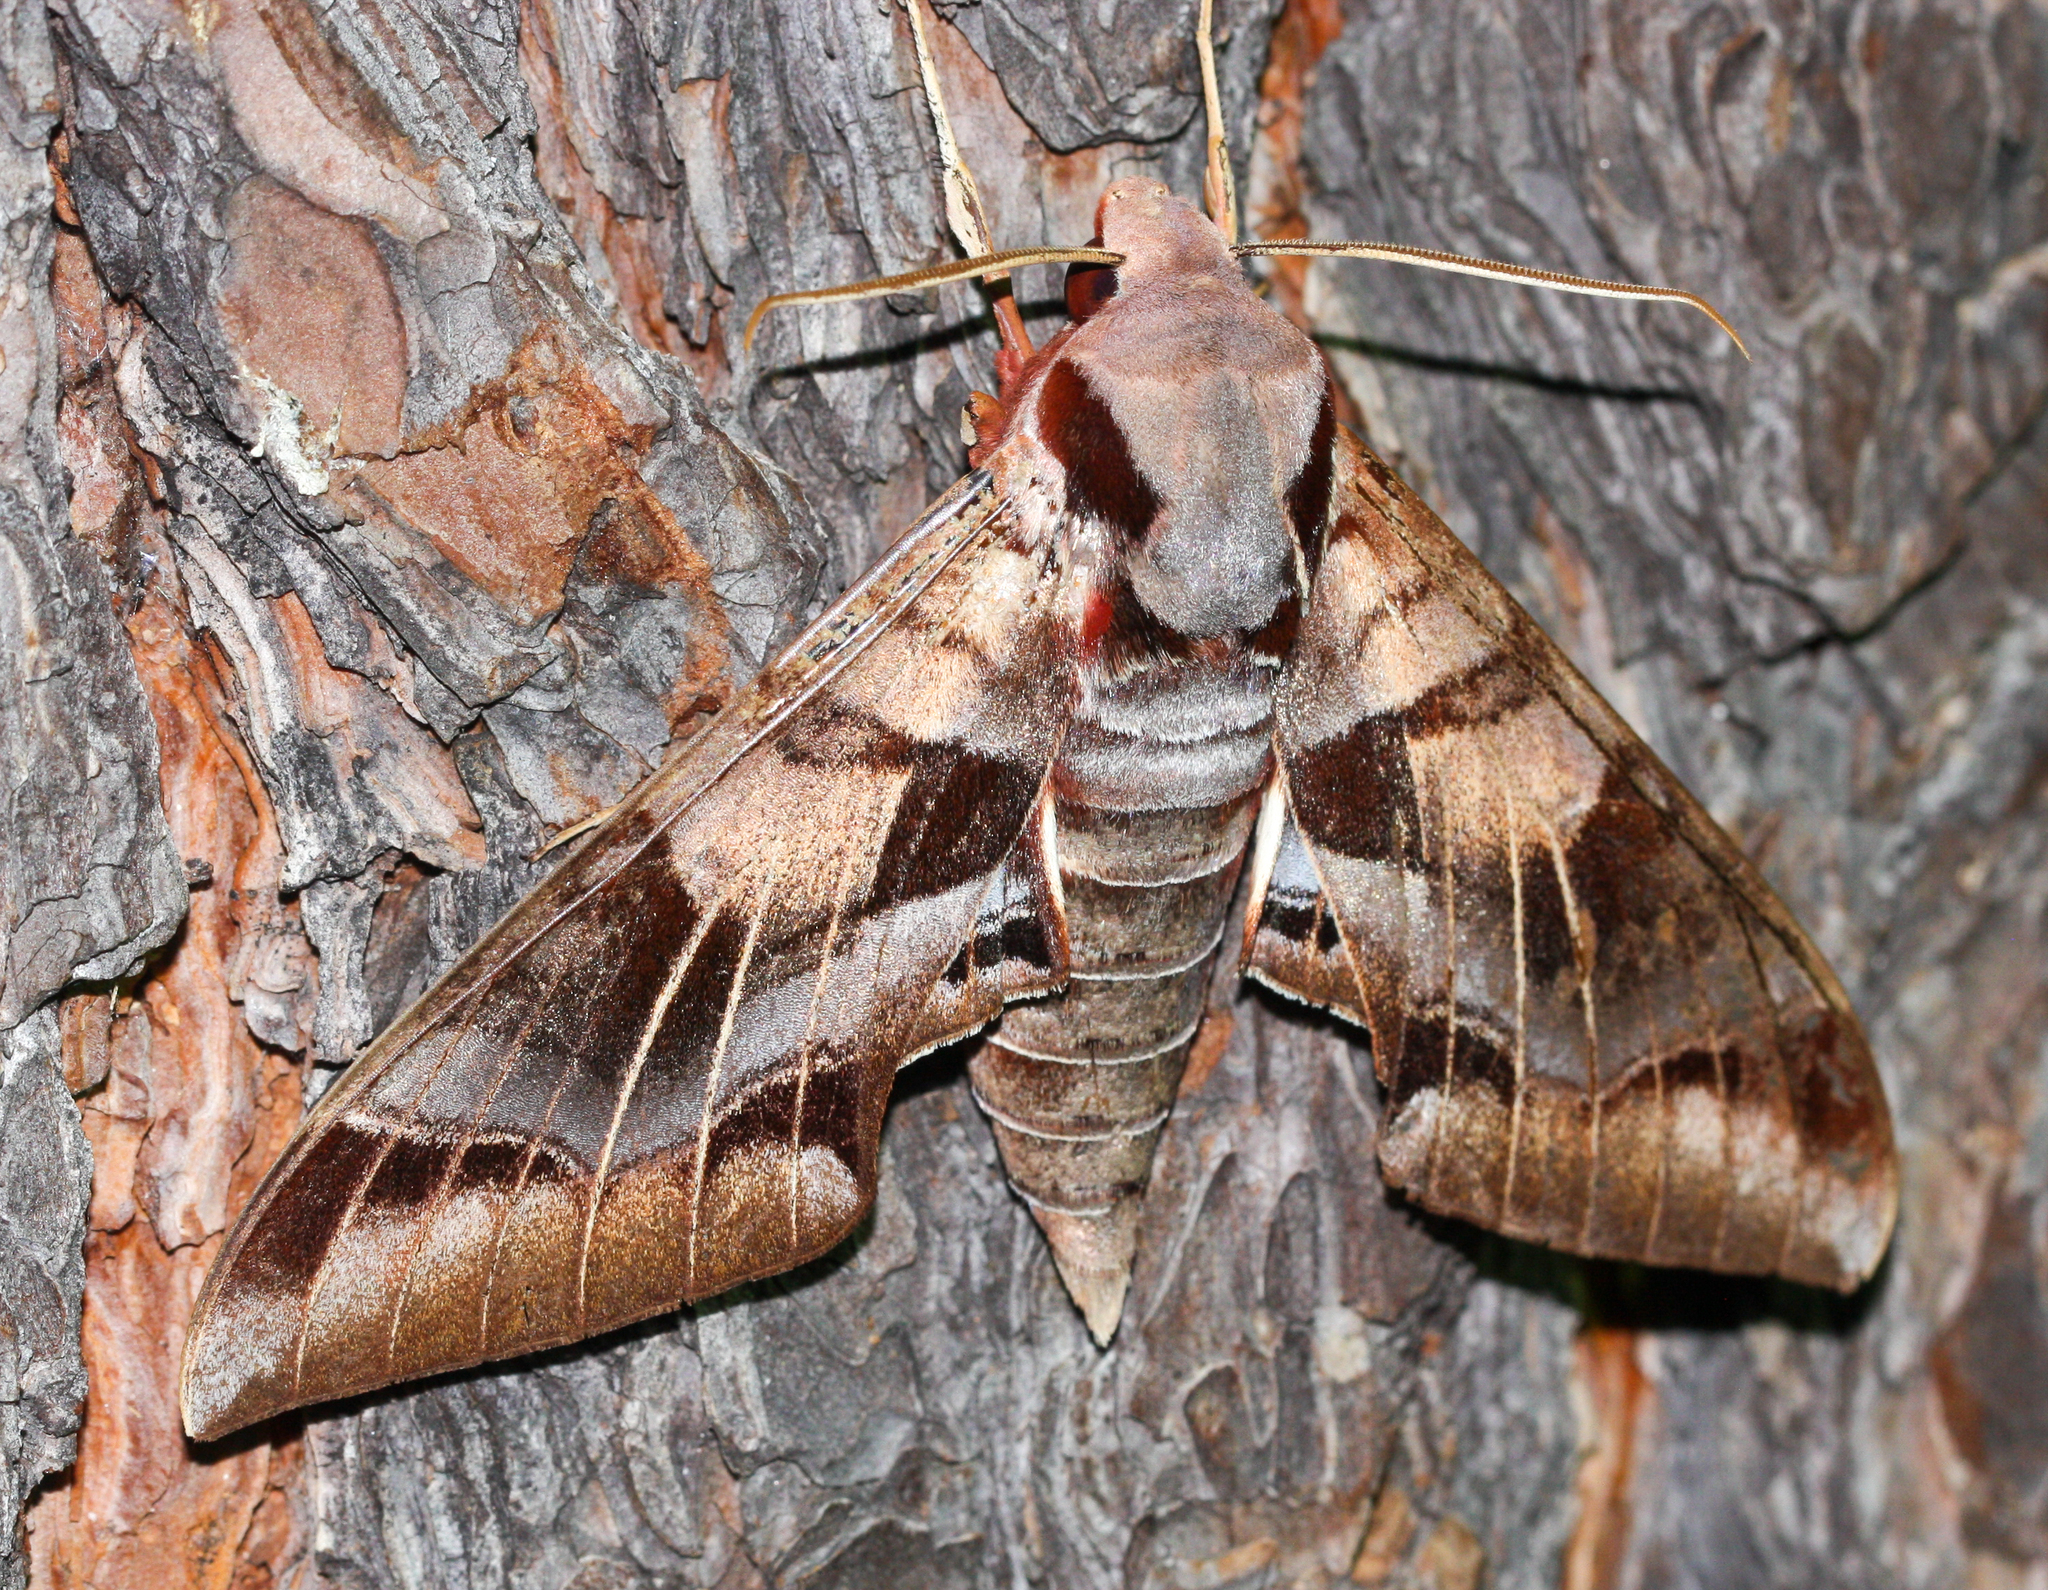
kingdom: Animalia
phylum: Arthropoda
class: Insecta
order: Lepidoptera
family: Sphingidae
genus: Eumorpha
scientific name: Eumorpha typhon
